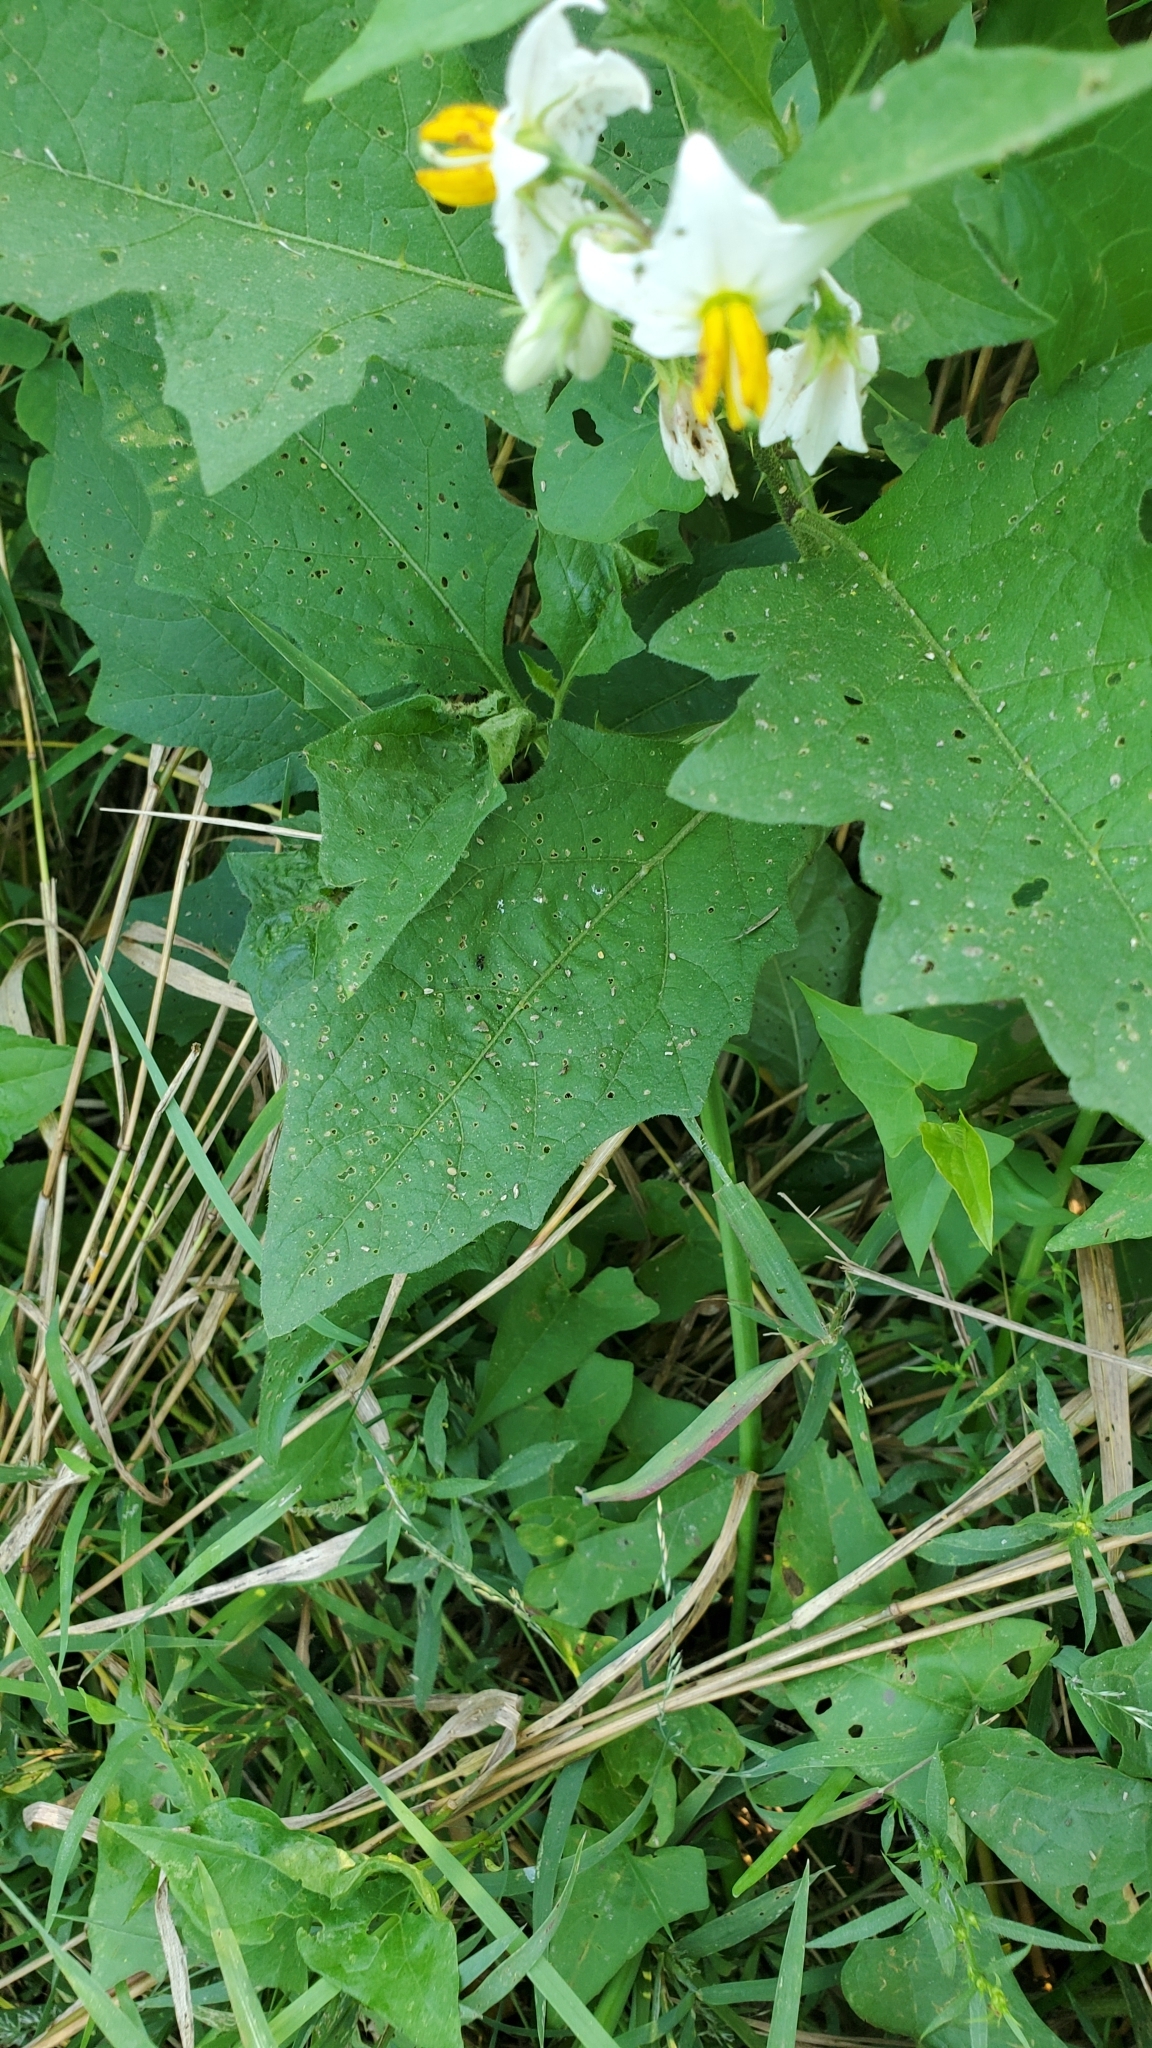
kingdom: Plantae
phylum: Tracheophyta
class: Magnoliopsida
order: Solanales
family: Solanaceae
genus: Solanum
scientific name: Solanum carolinense
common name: Horse-nettle
